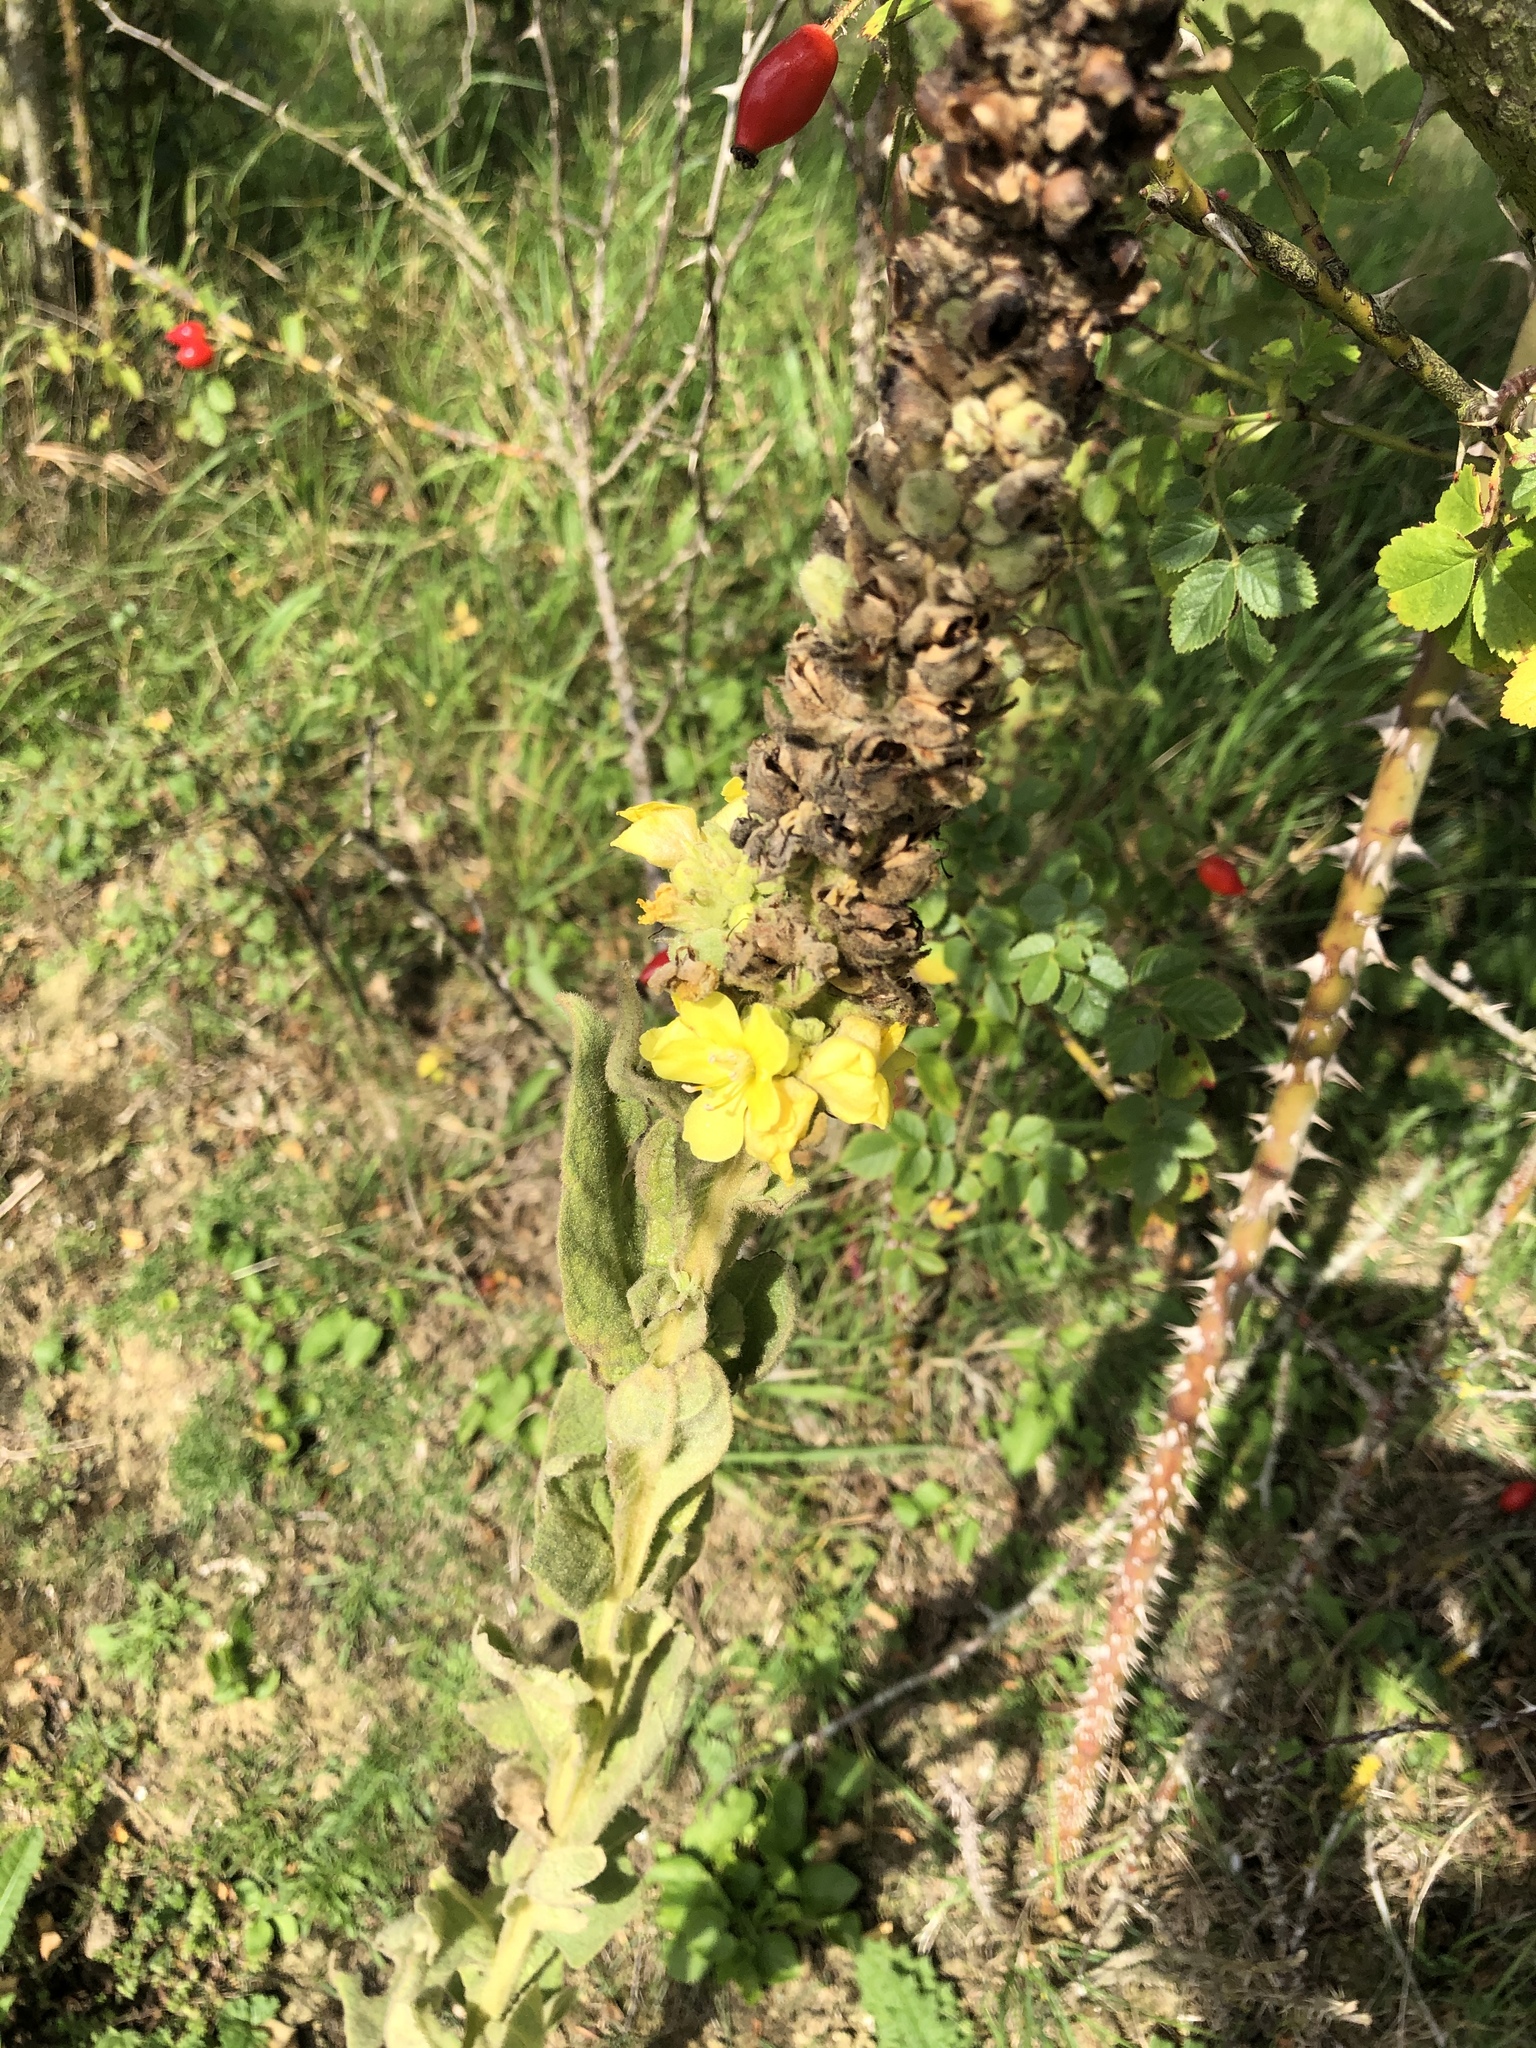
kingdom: Plantae
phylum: Tracheophyta
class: Magnoliopsida
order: Lamiales
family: Scrophulariaceae
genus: Verbascum
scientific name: Verbascum thapsus
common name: Common mullein
